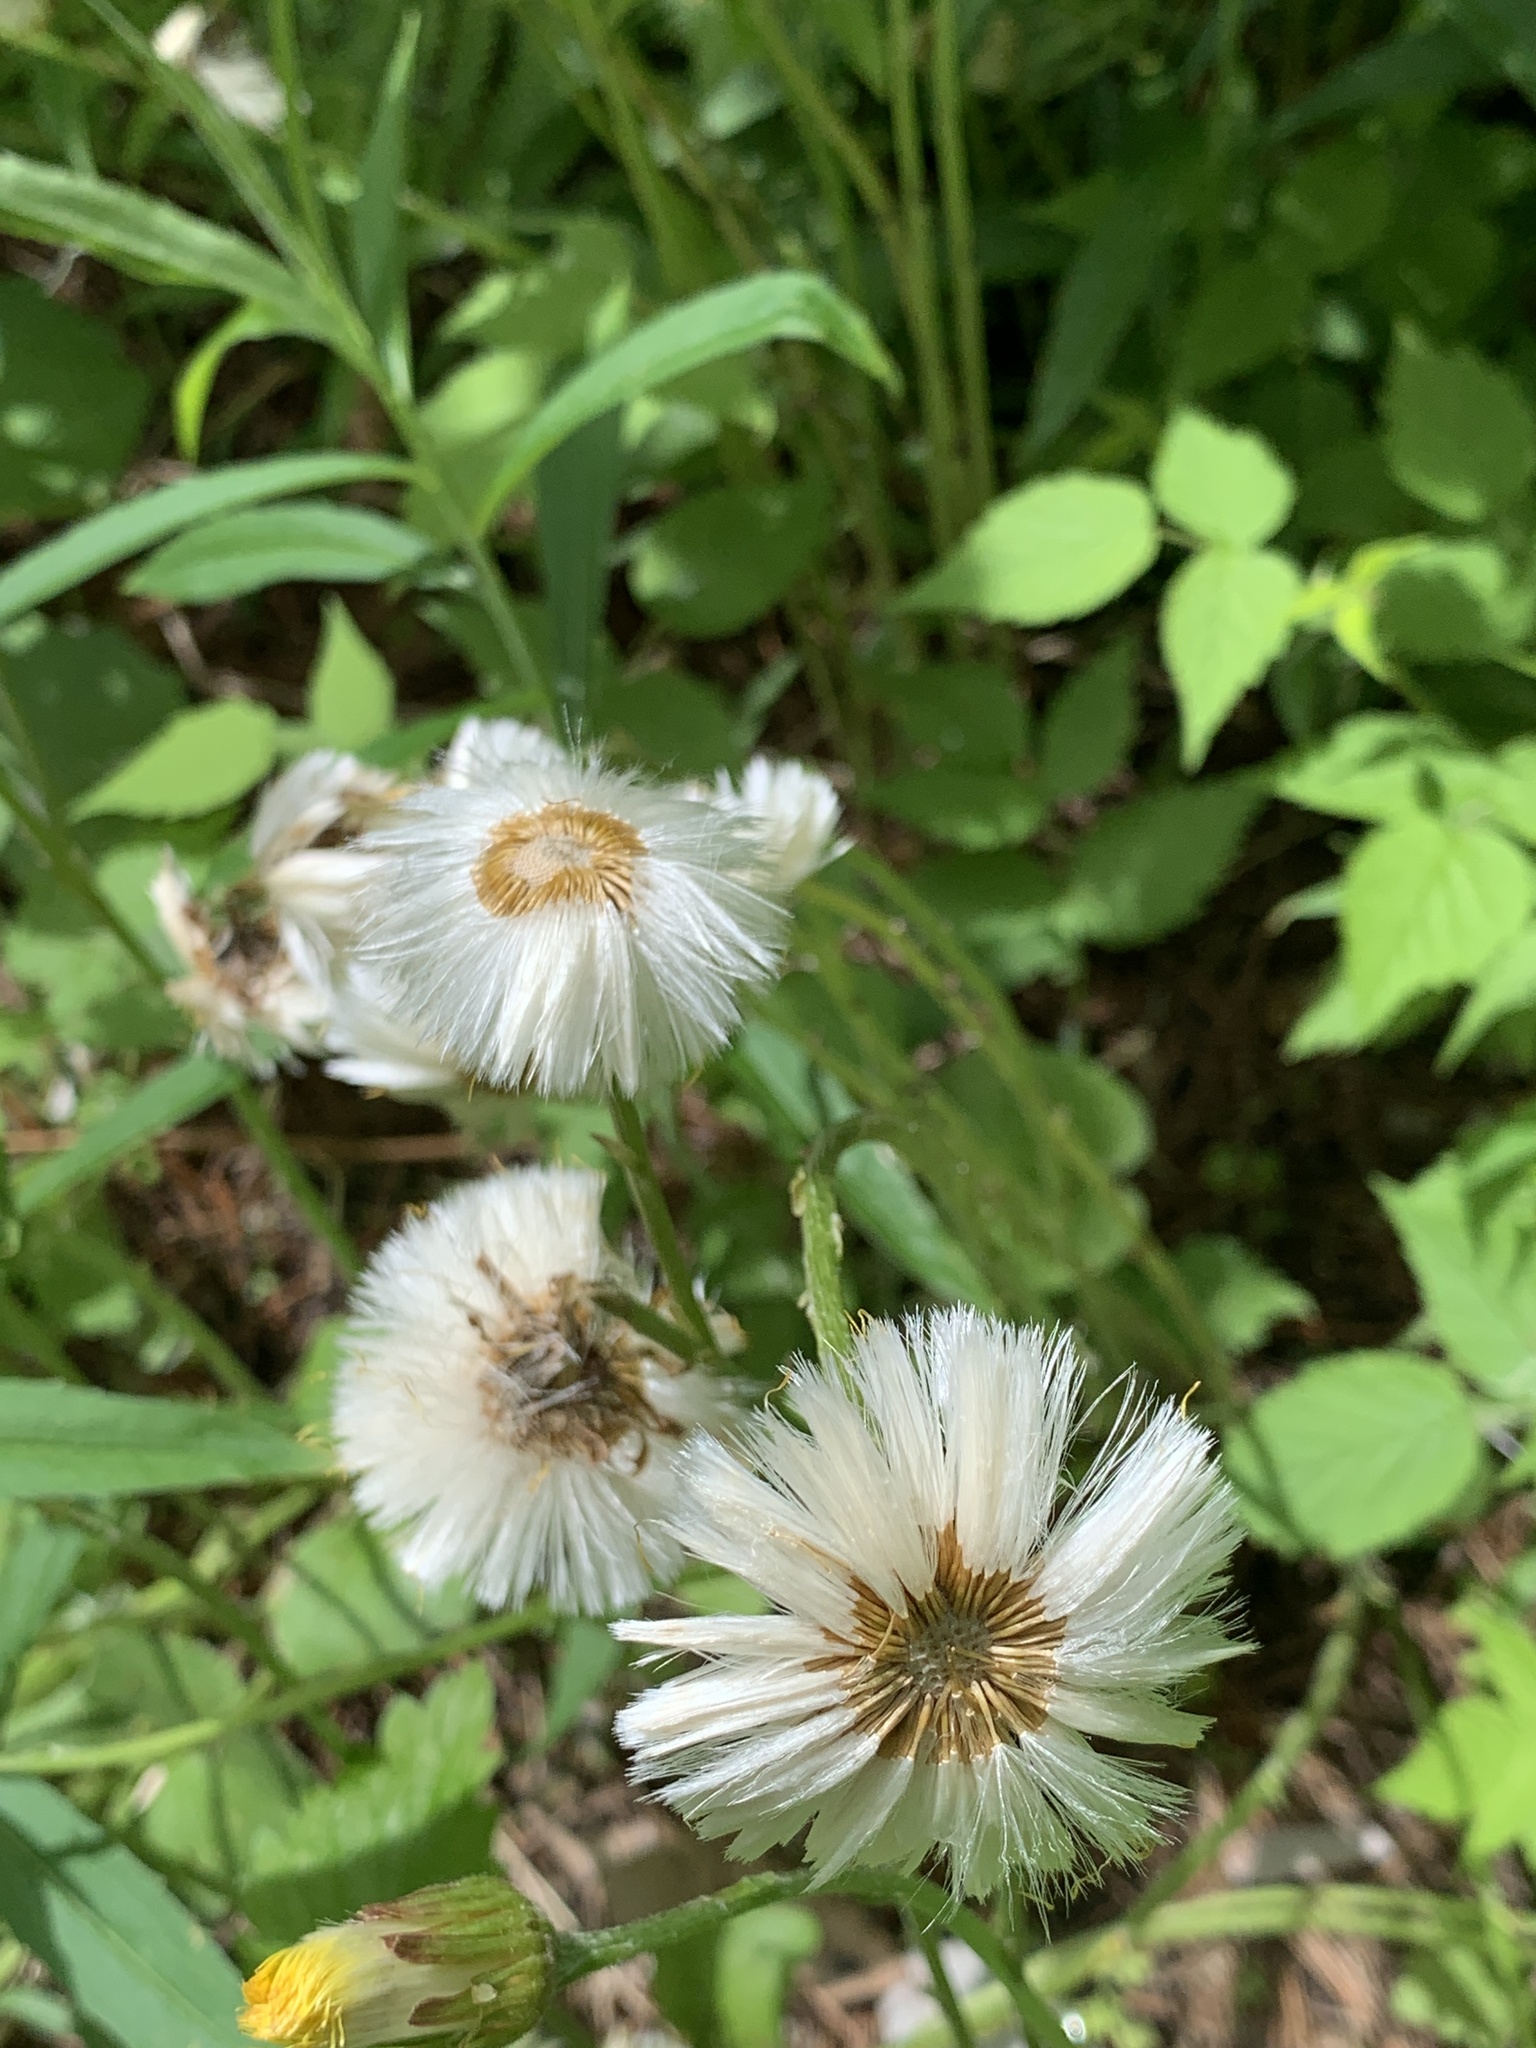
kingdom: Plantae
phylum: Tracheophyta
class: Magnoliopsida
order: Asterales
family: Asteraceae
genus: Tussilago
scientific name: Tussilago farfara
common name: Coltsfoot
